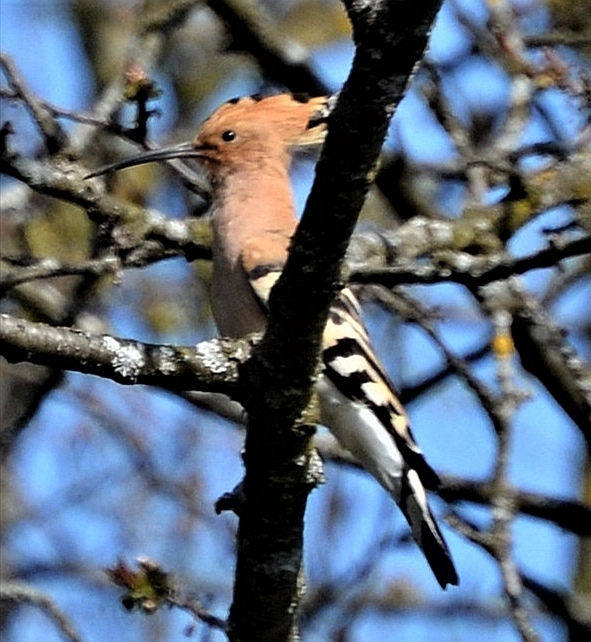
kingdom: Animalia
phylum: Chordata
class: Aves
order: Bucerotiformes
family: Upupidae
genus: Upupa
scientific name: Upupa epops
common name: Eurasian hoopoe
